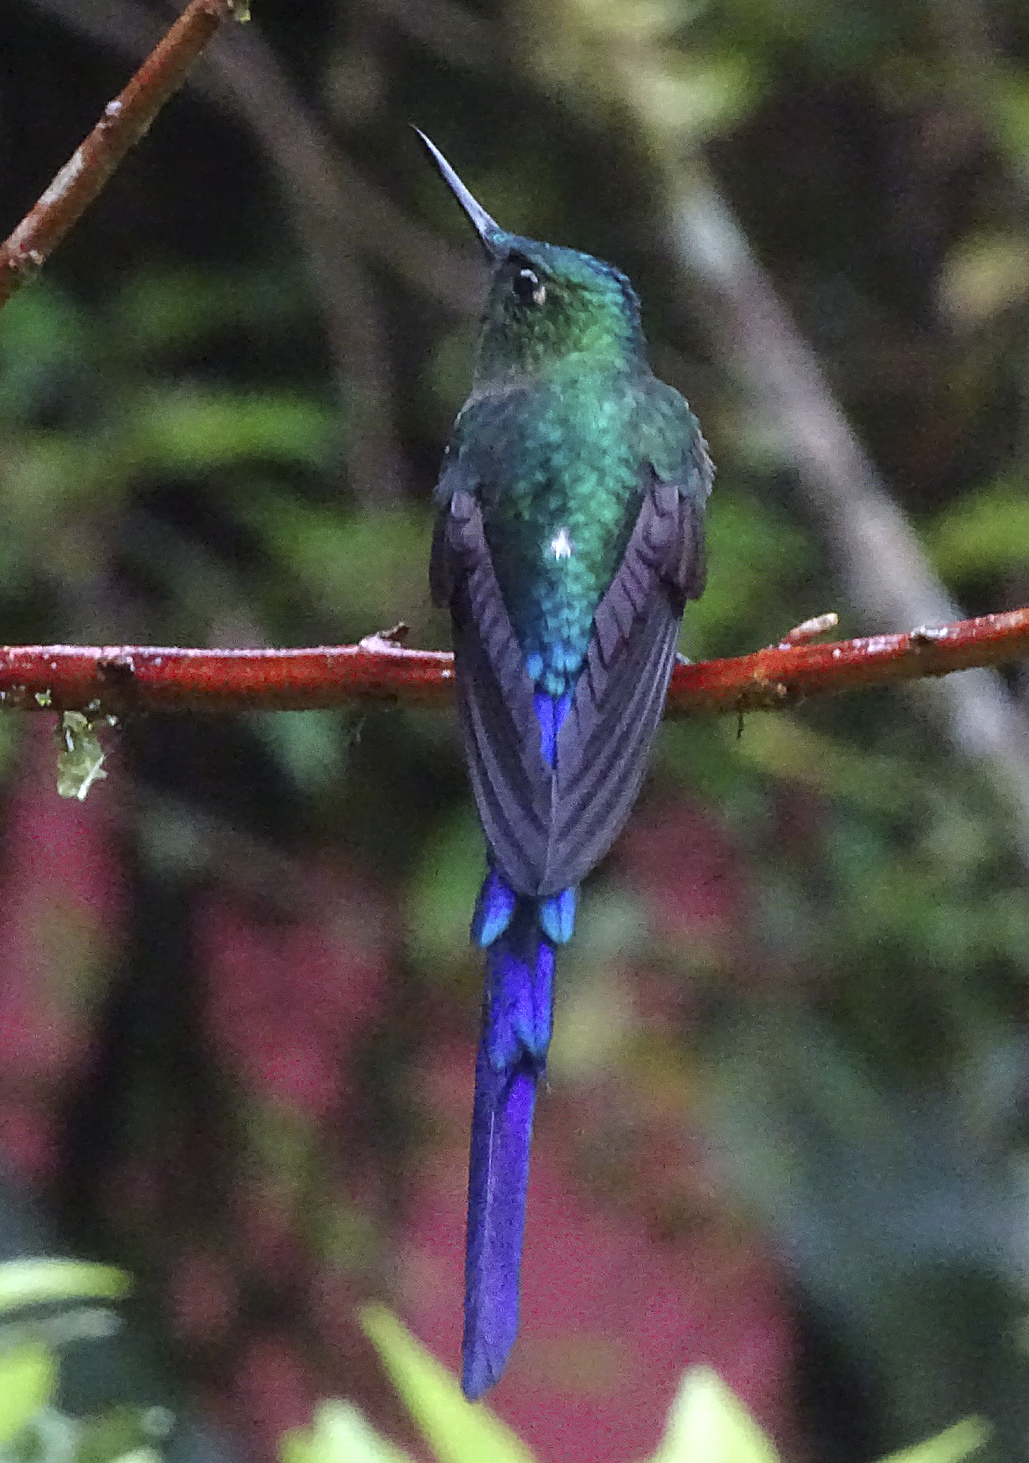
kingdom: Animalia
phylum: Chordata
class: Aves
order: Apodiformes
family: Trochilidae
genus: Aglaiocercus
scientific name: Aglaiocercus coelestis
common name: Violet-tailed sylph
